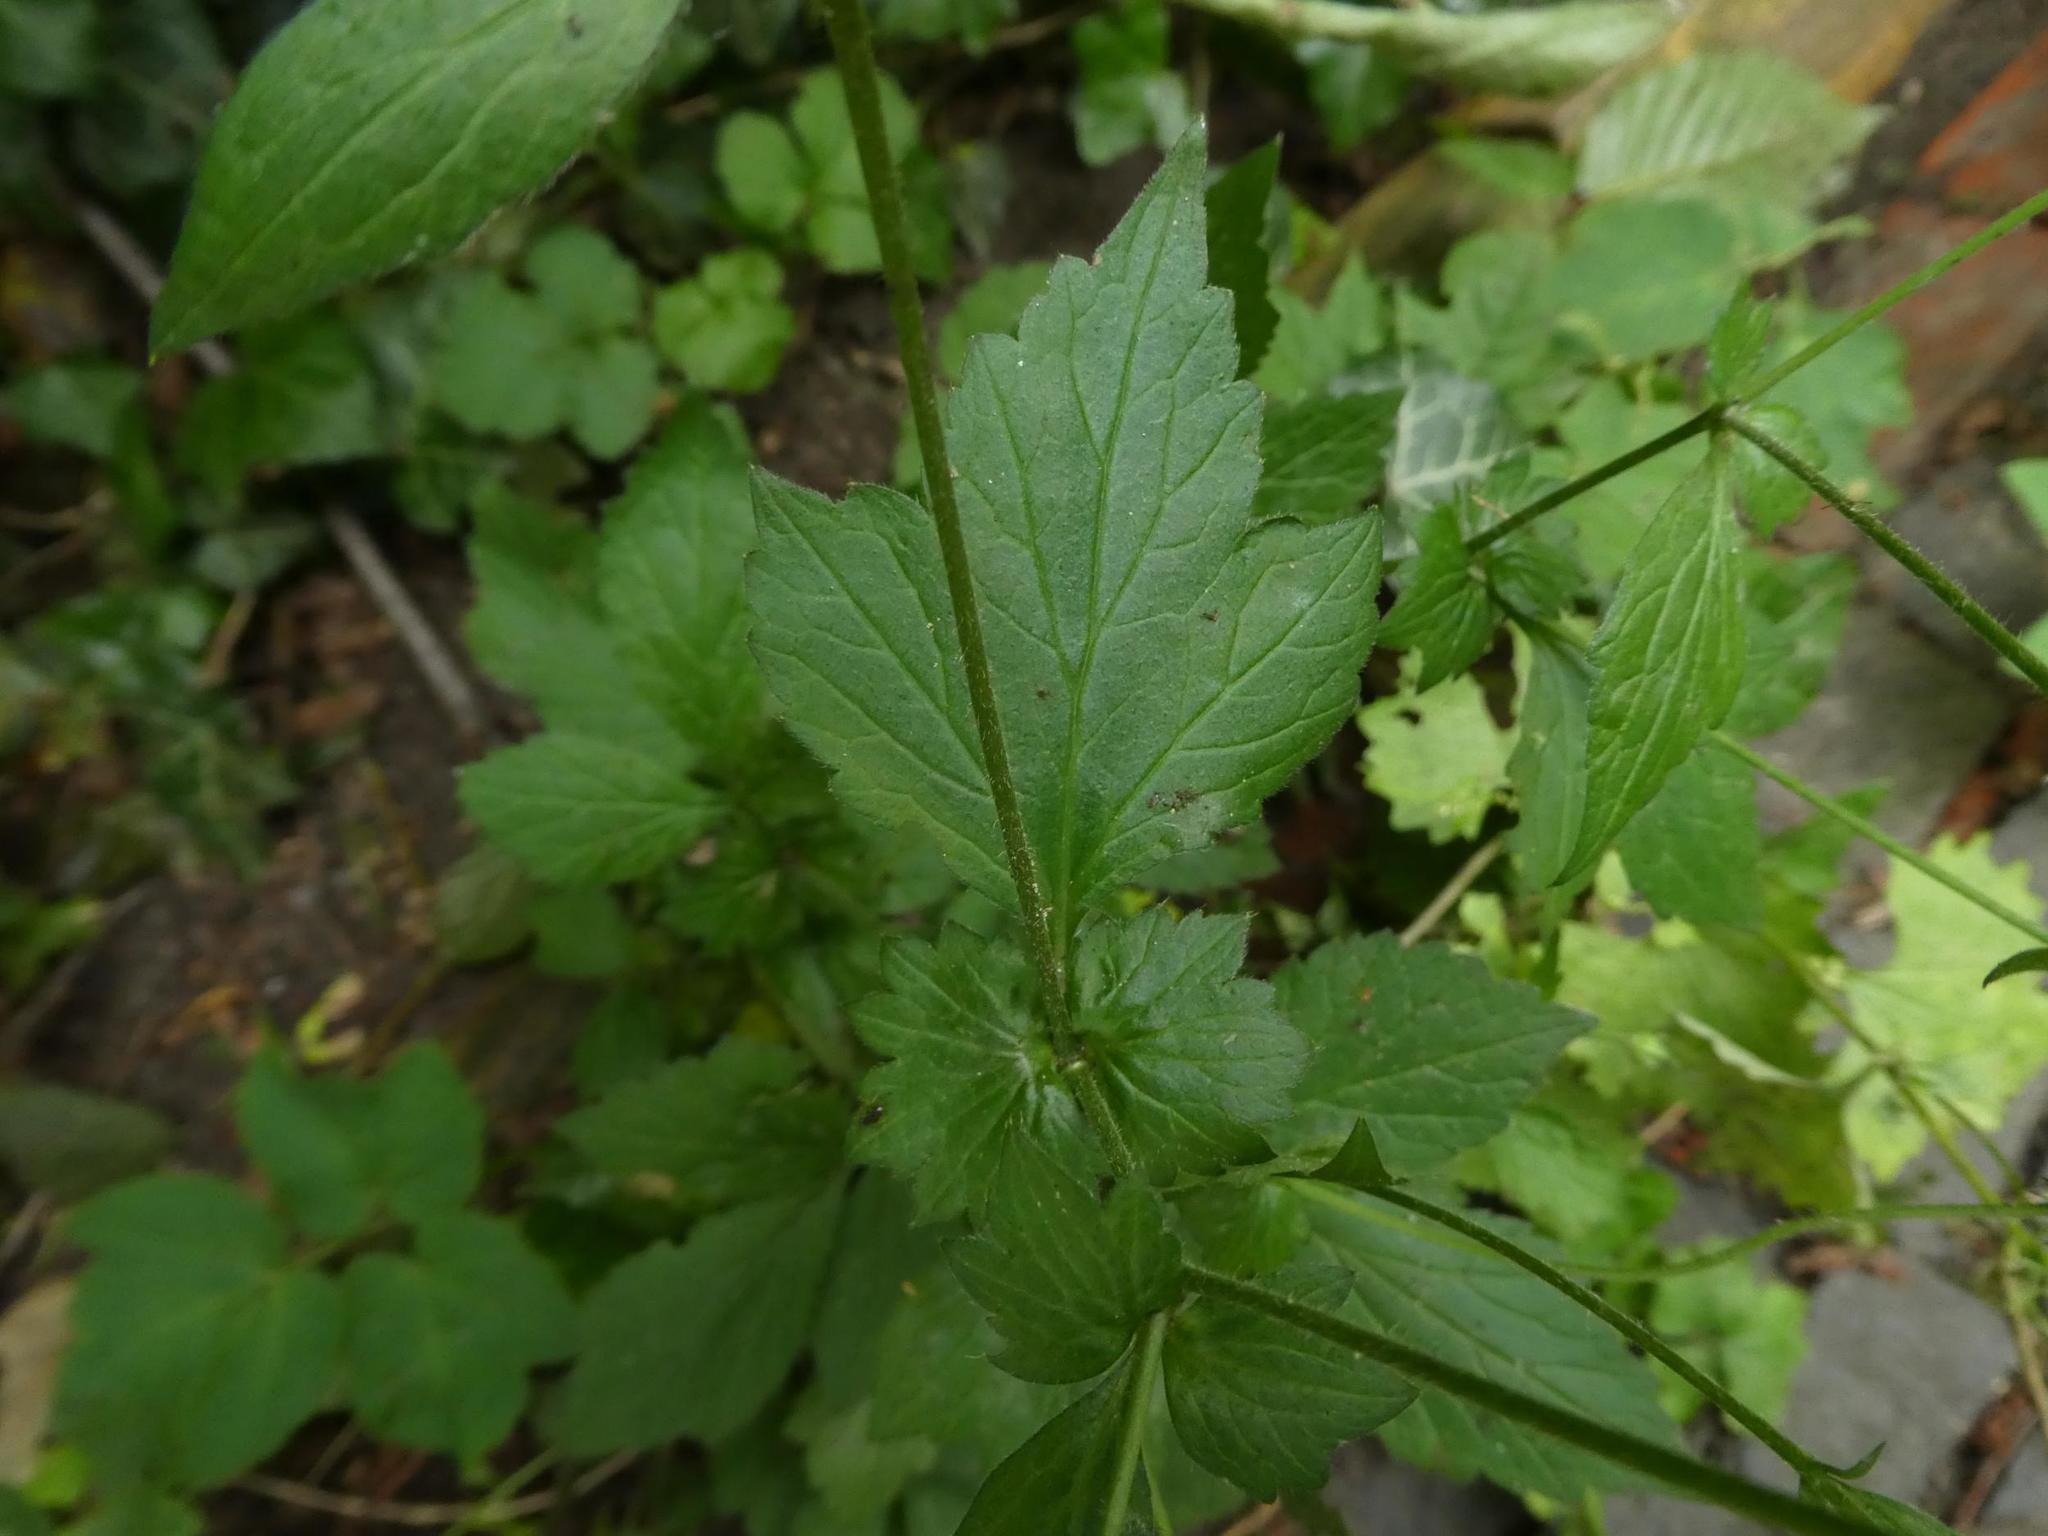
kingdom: Plantae
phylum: Tracheophyta
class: Magnoliopsida
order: Rosales
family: Rosaceae
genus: Geum
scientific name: Geum urbanum
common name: Wood avens
